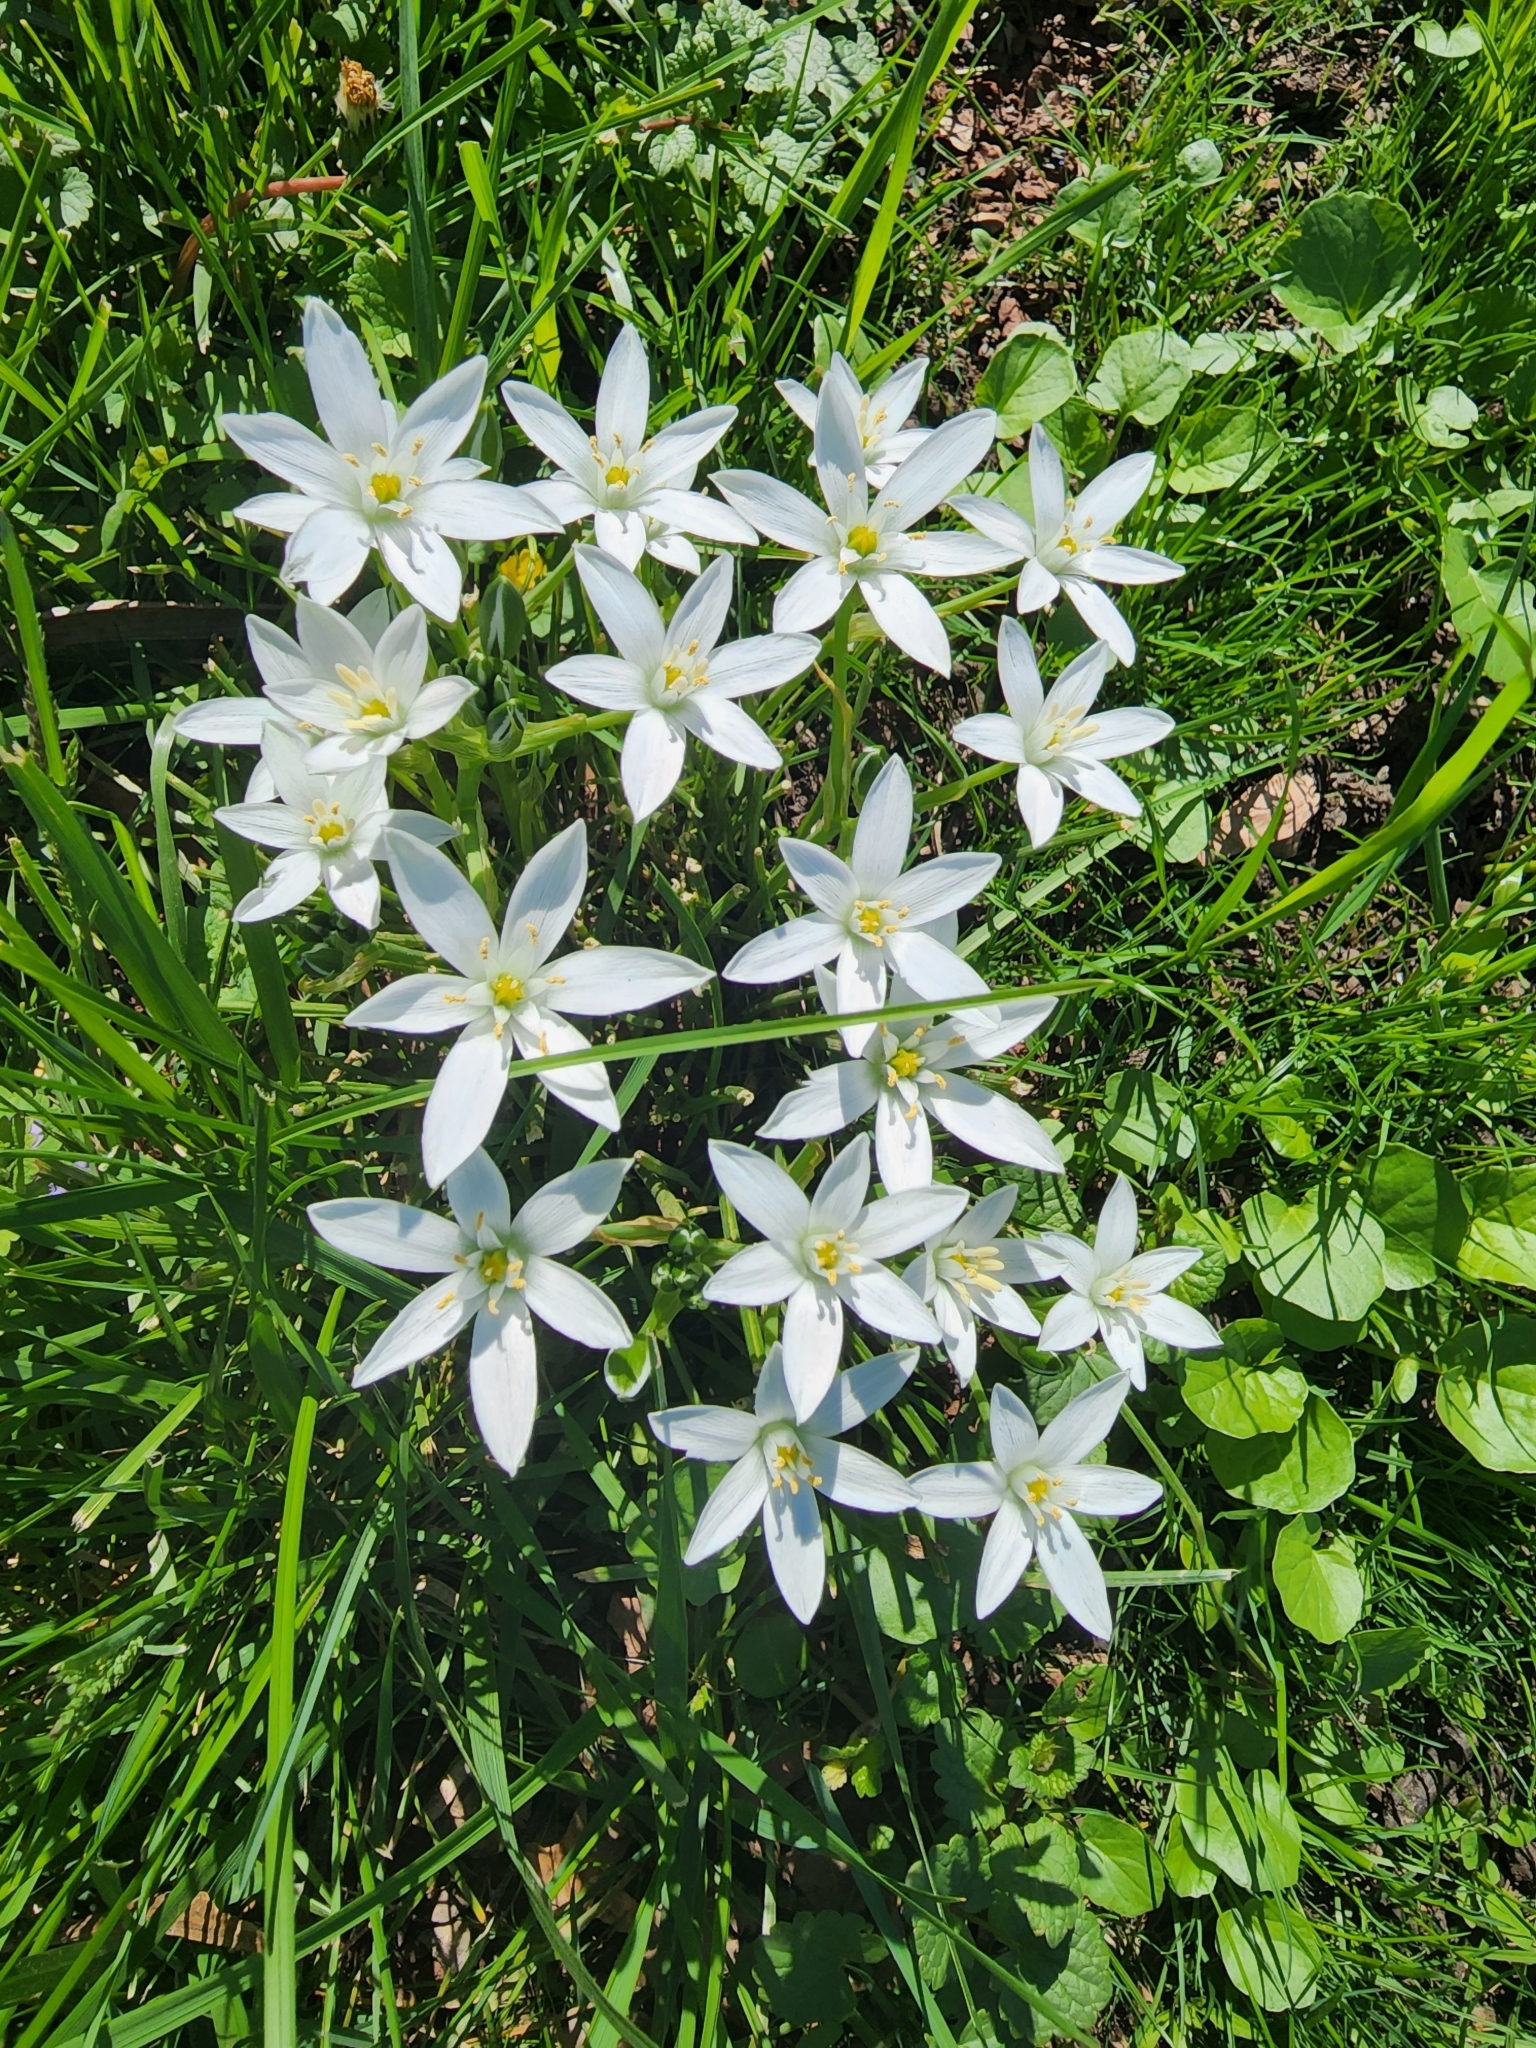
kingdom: Plantae
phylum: Tracheophyta
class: Liliopsida
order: Asparagales
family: Asparagaceae
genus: Ornithogalum
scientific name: Ornithogalum umbellatum
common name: Garden star-of-bethlehem
